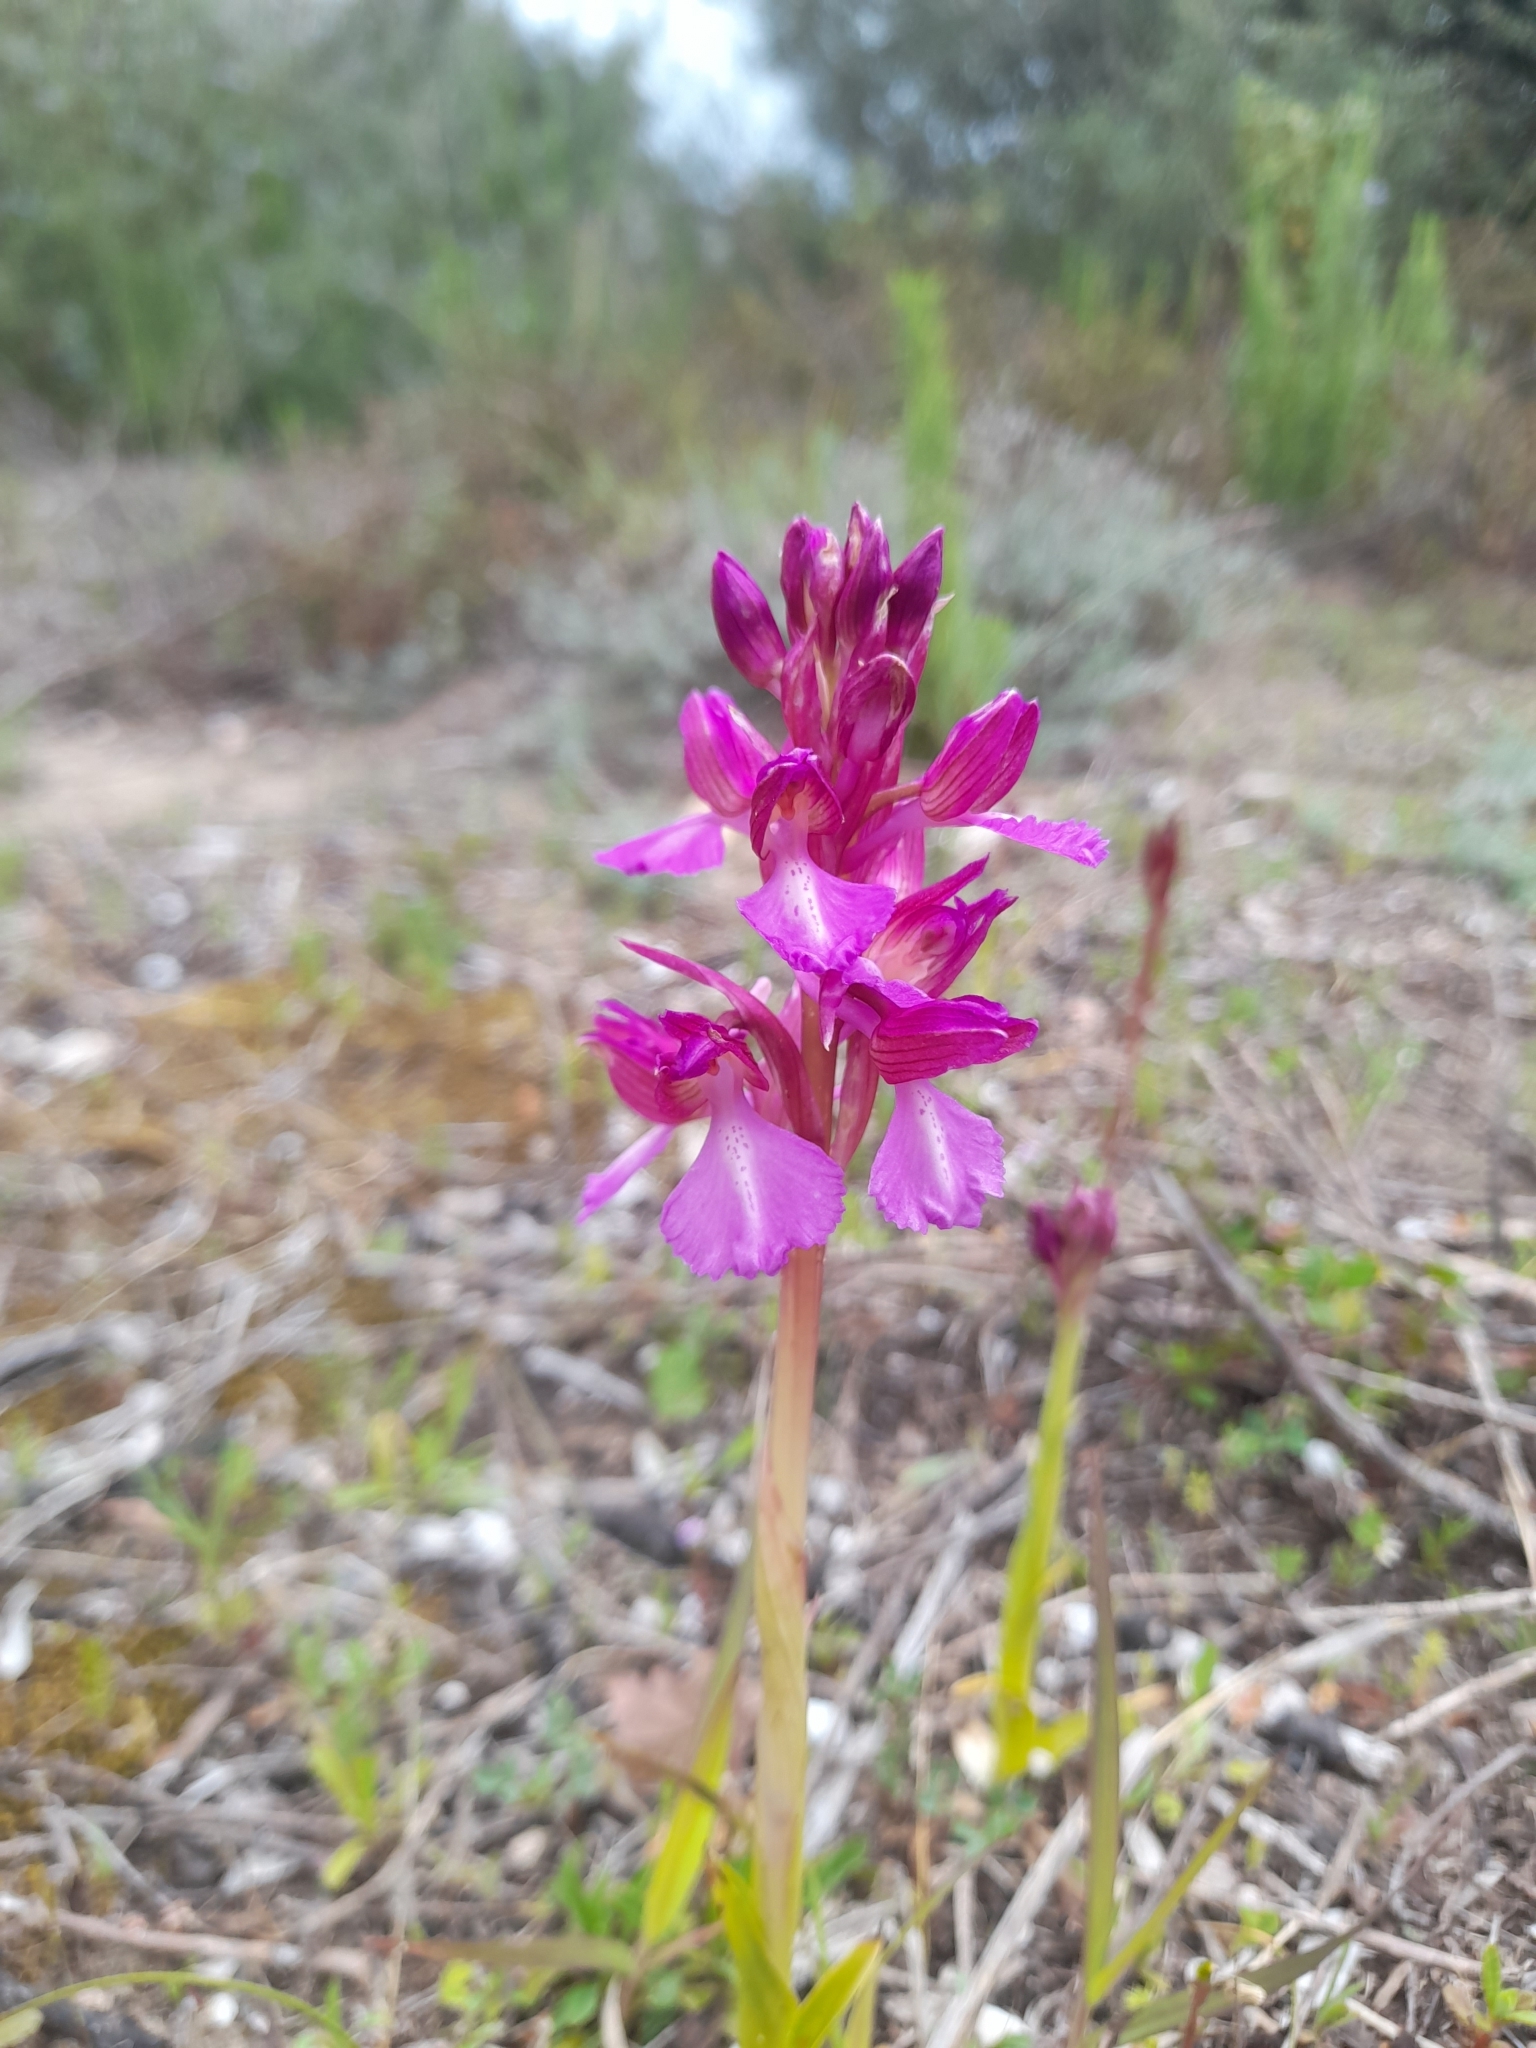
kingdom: Plantae
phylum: Tracheophyta
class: Liliopsida
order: Asparagales
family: Orchidaceae
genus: Anacamptis
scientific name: Anacamptis gennarii
